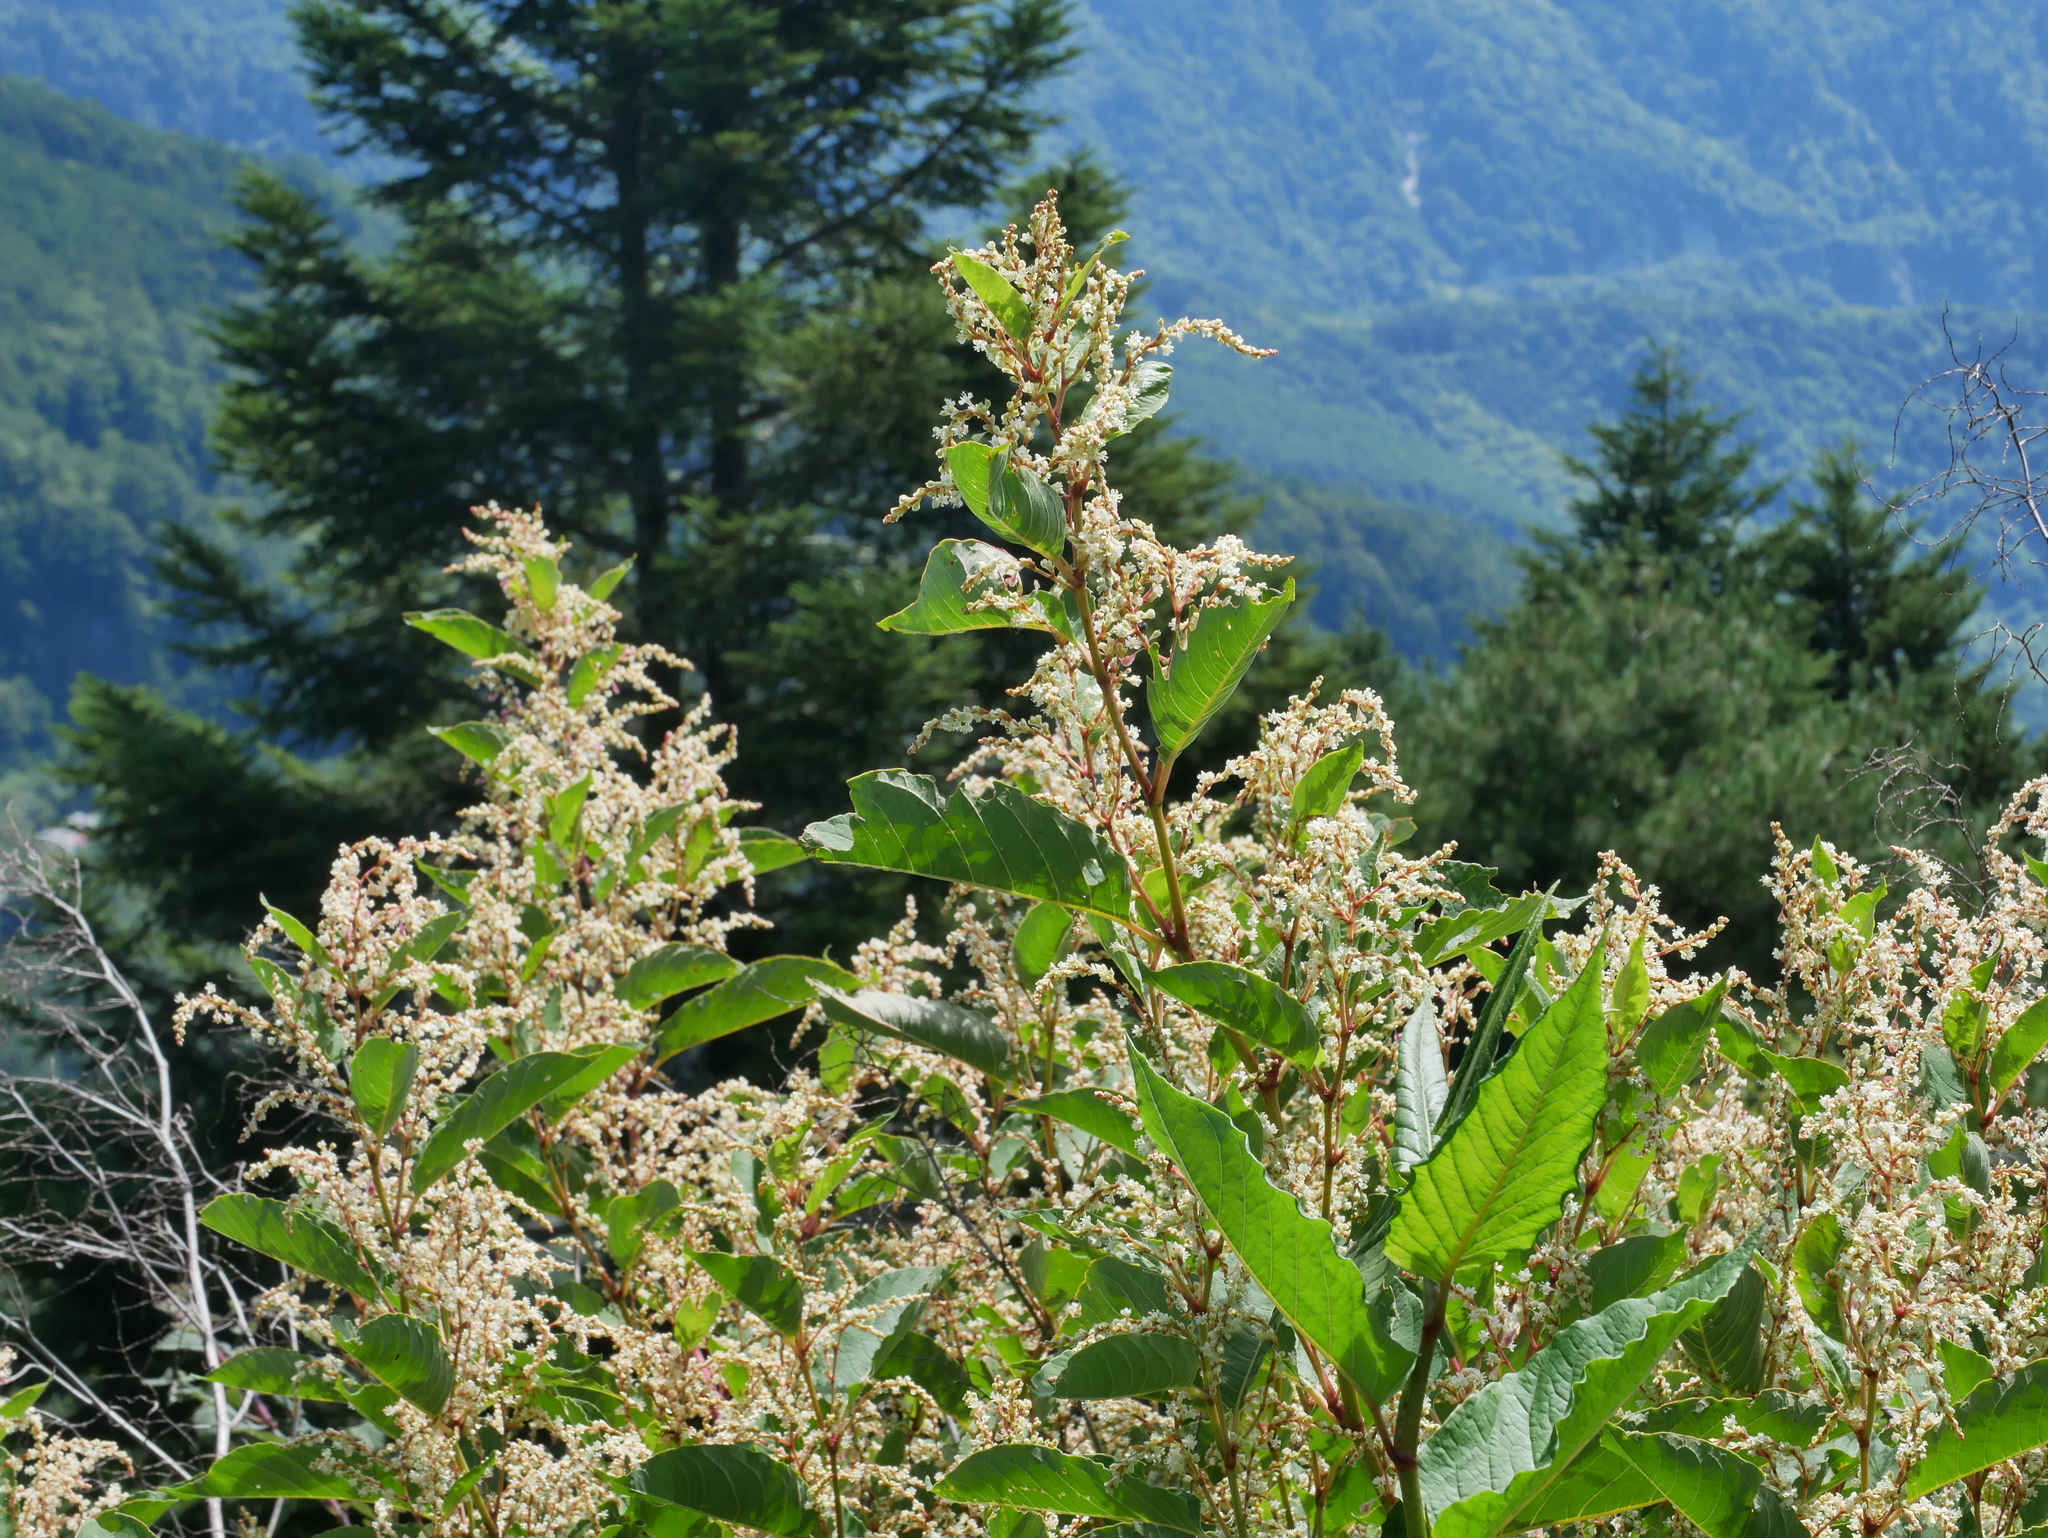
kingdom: Plantae
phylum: Tracheophyta
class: Magnoliopsida
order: Caryophyllales
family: Polygonaceae
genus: Reynoutria
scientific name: Reynoutria japonica
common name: Japanese knotweed
